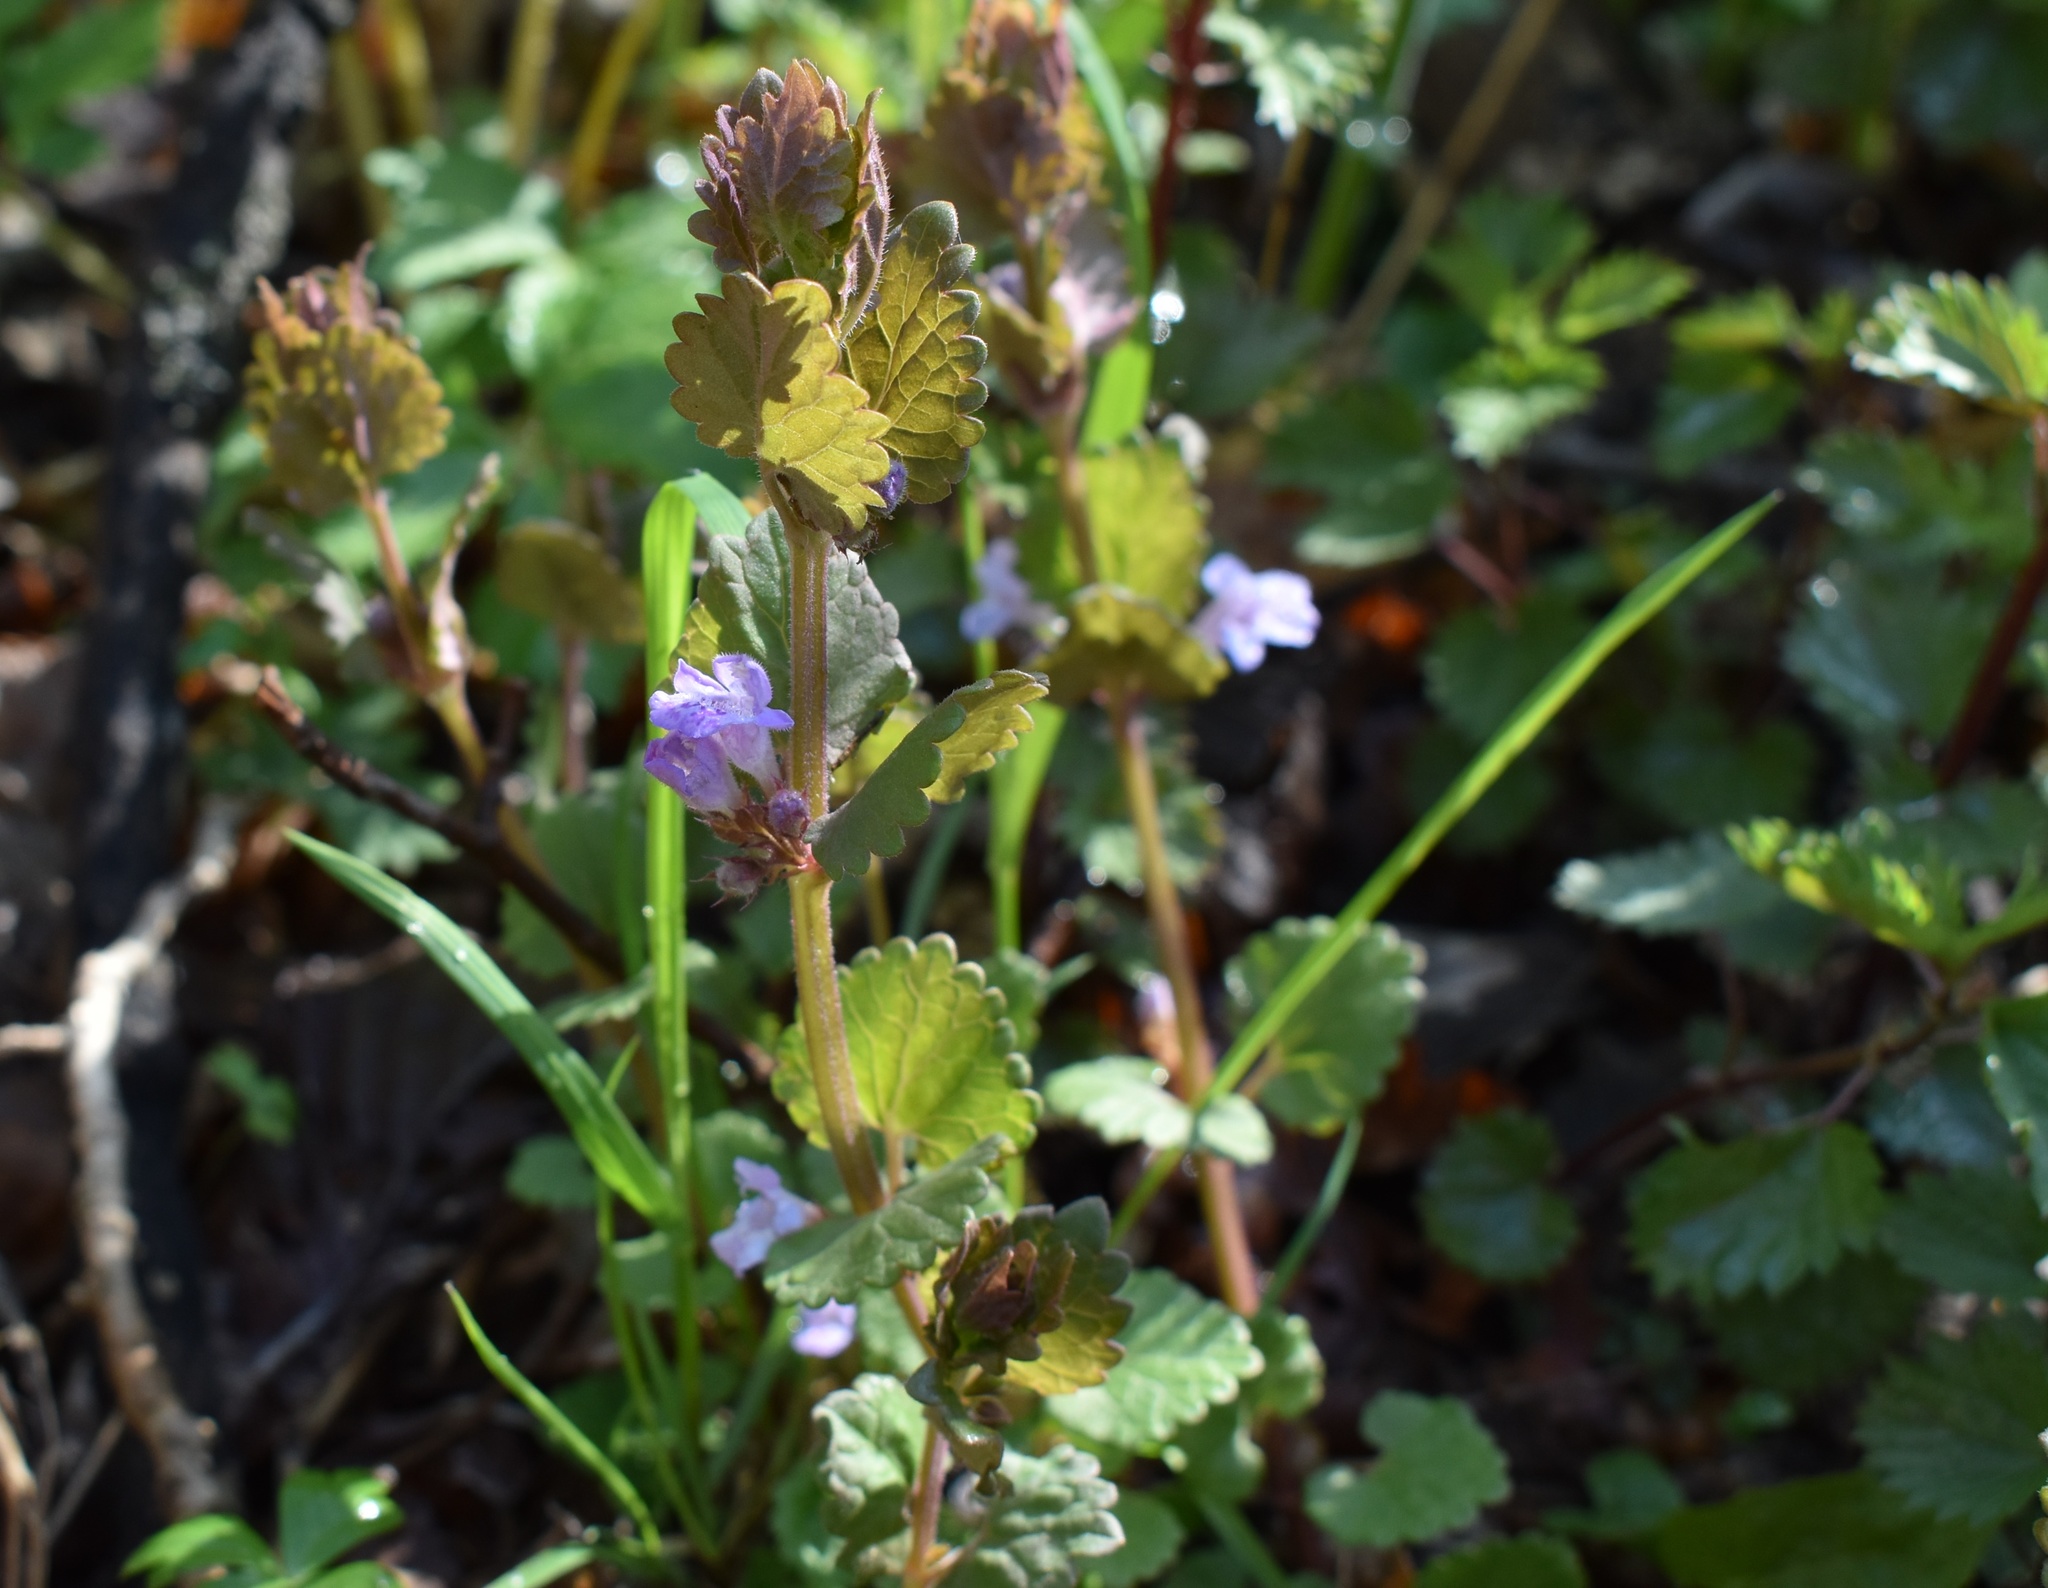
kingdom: Plantae
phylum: Tracheophyta
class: Magnoliopsida
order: Lamiales
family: Lamiaceae
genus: Glechoma
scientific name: Glechoma hederacea
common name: Ground ivy
